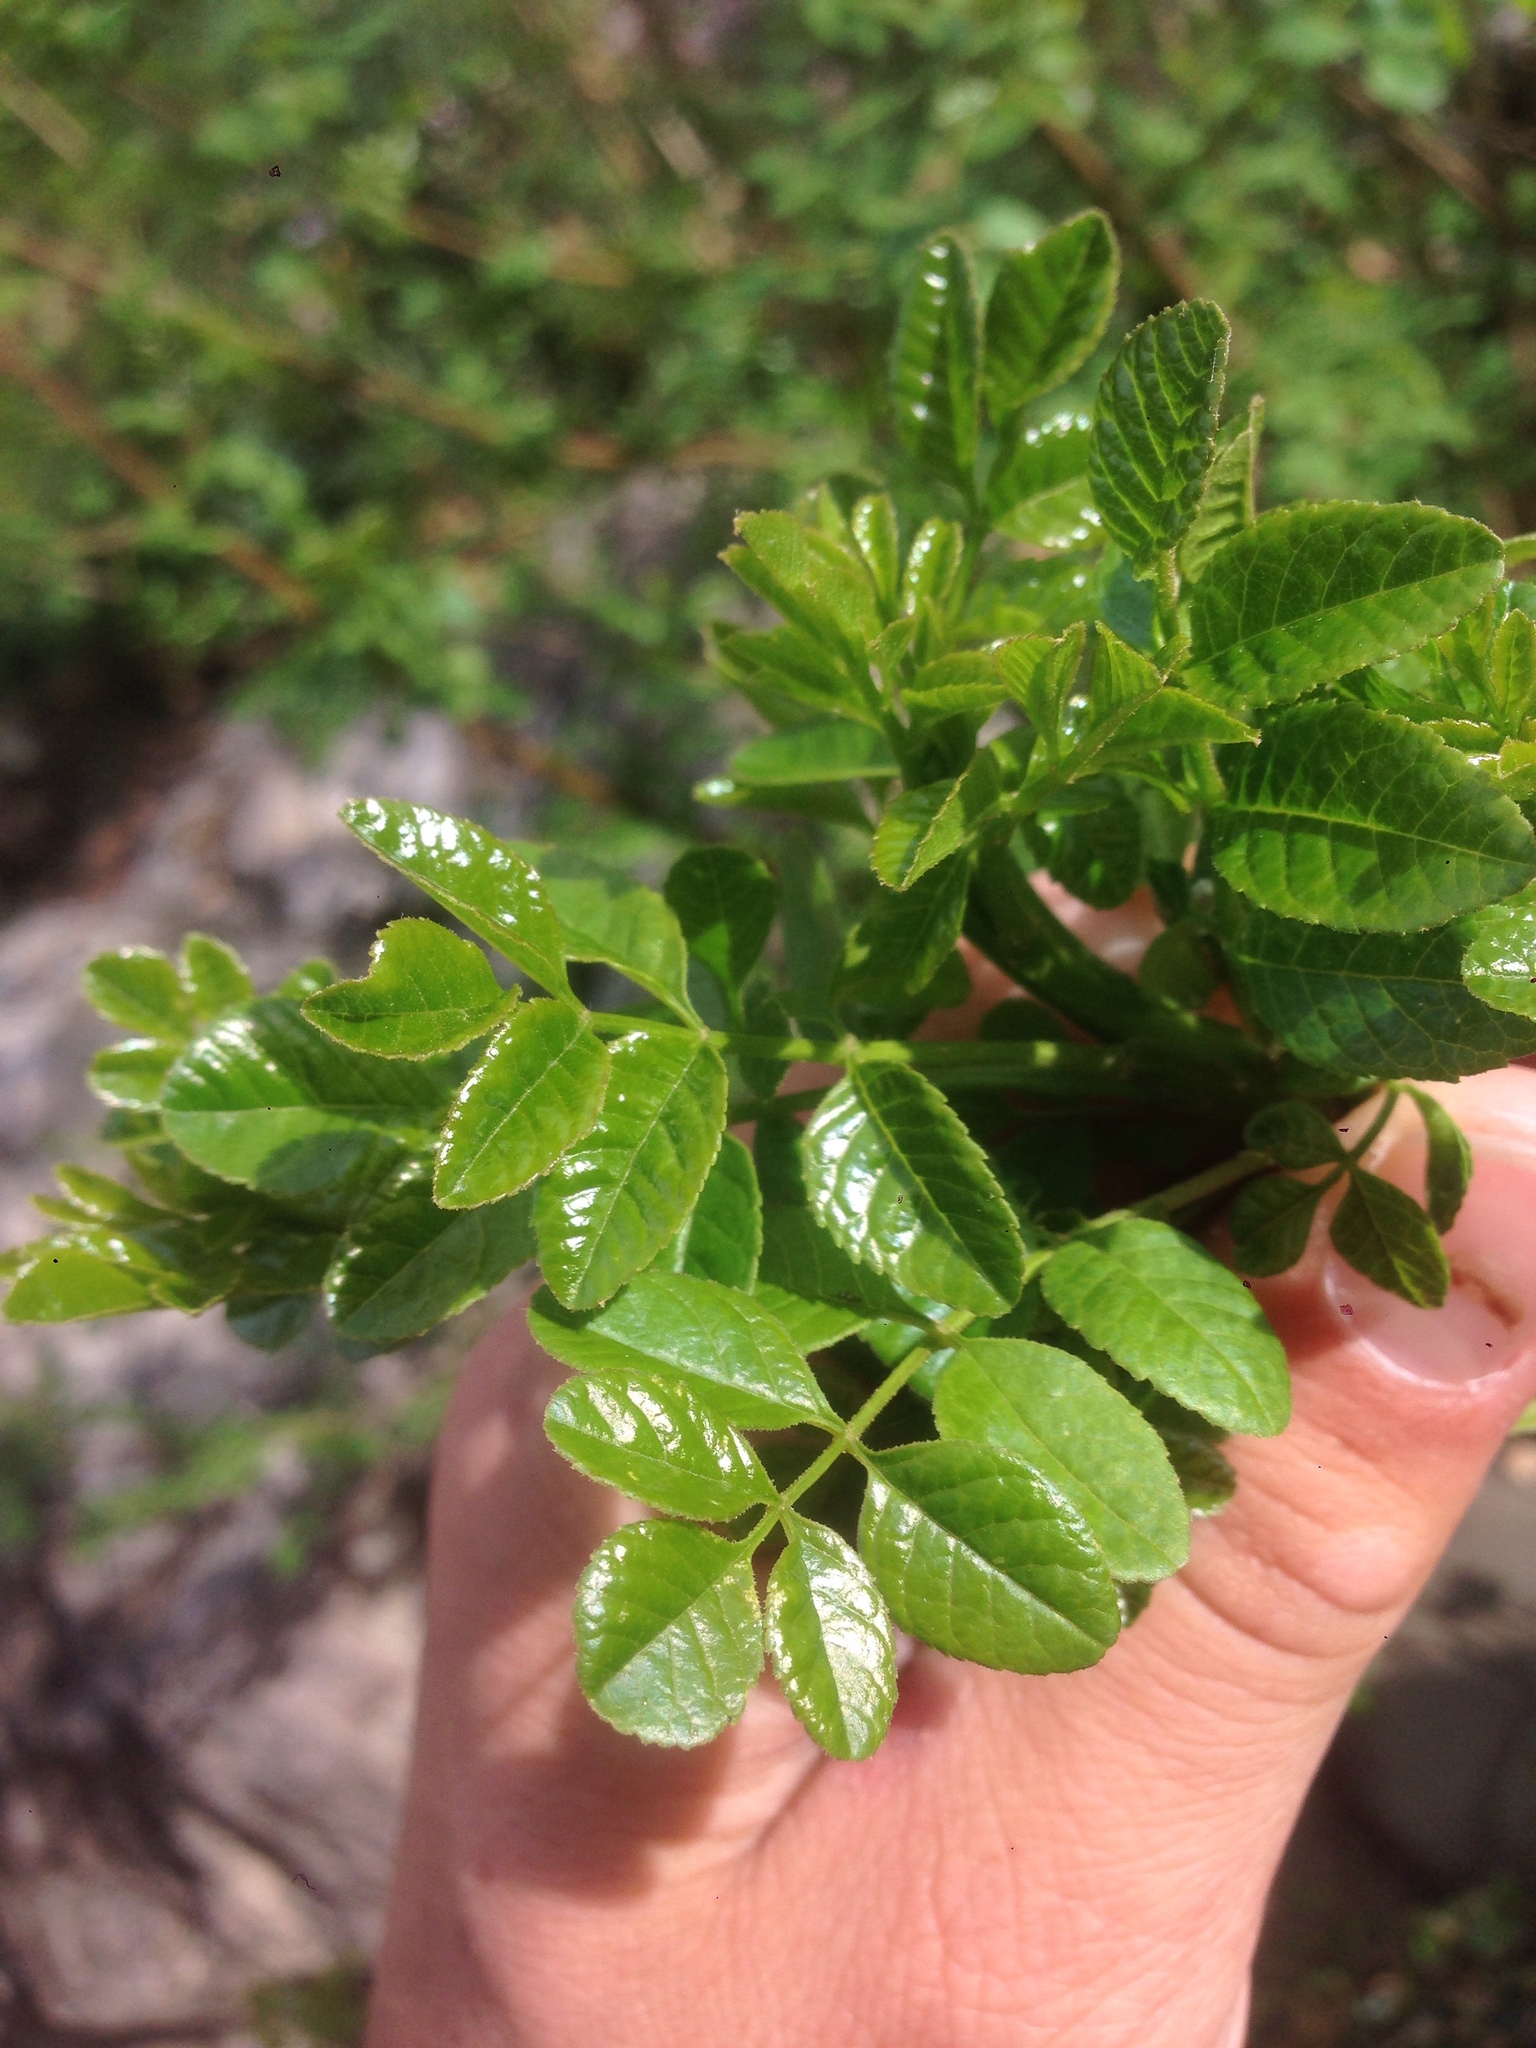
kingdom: Plantae
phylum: Tracheophyta
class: Magnoliopsida
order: Lamiales
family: Oleaceae
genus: Fraxinus
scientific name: Fraxinus dipetala
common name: California ash
